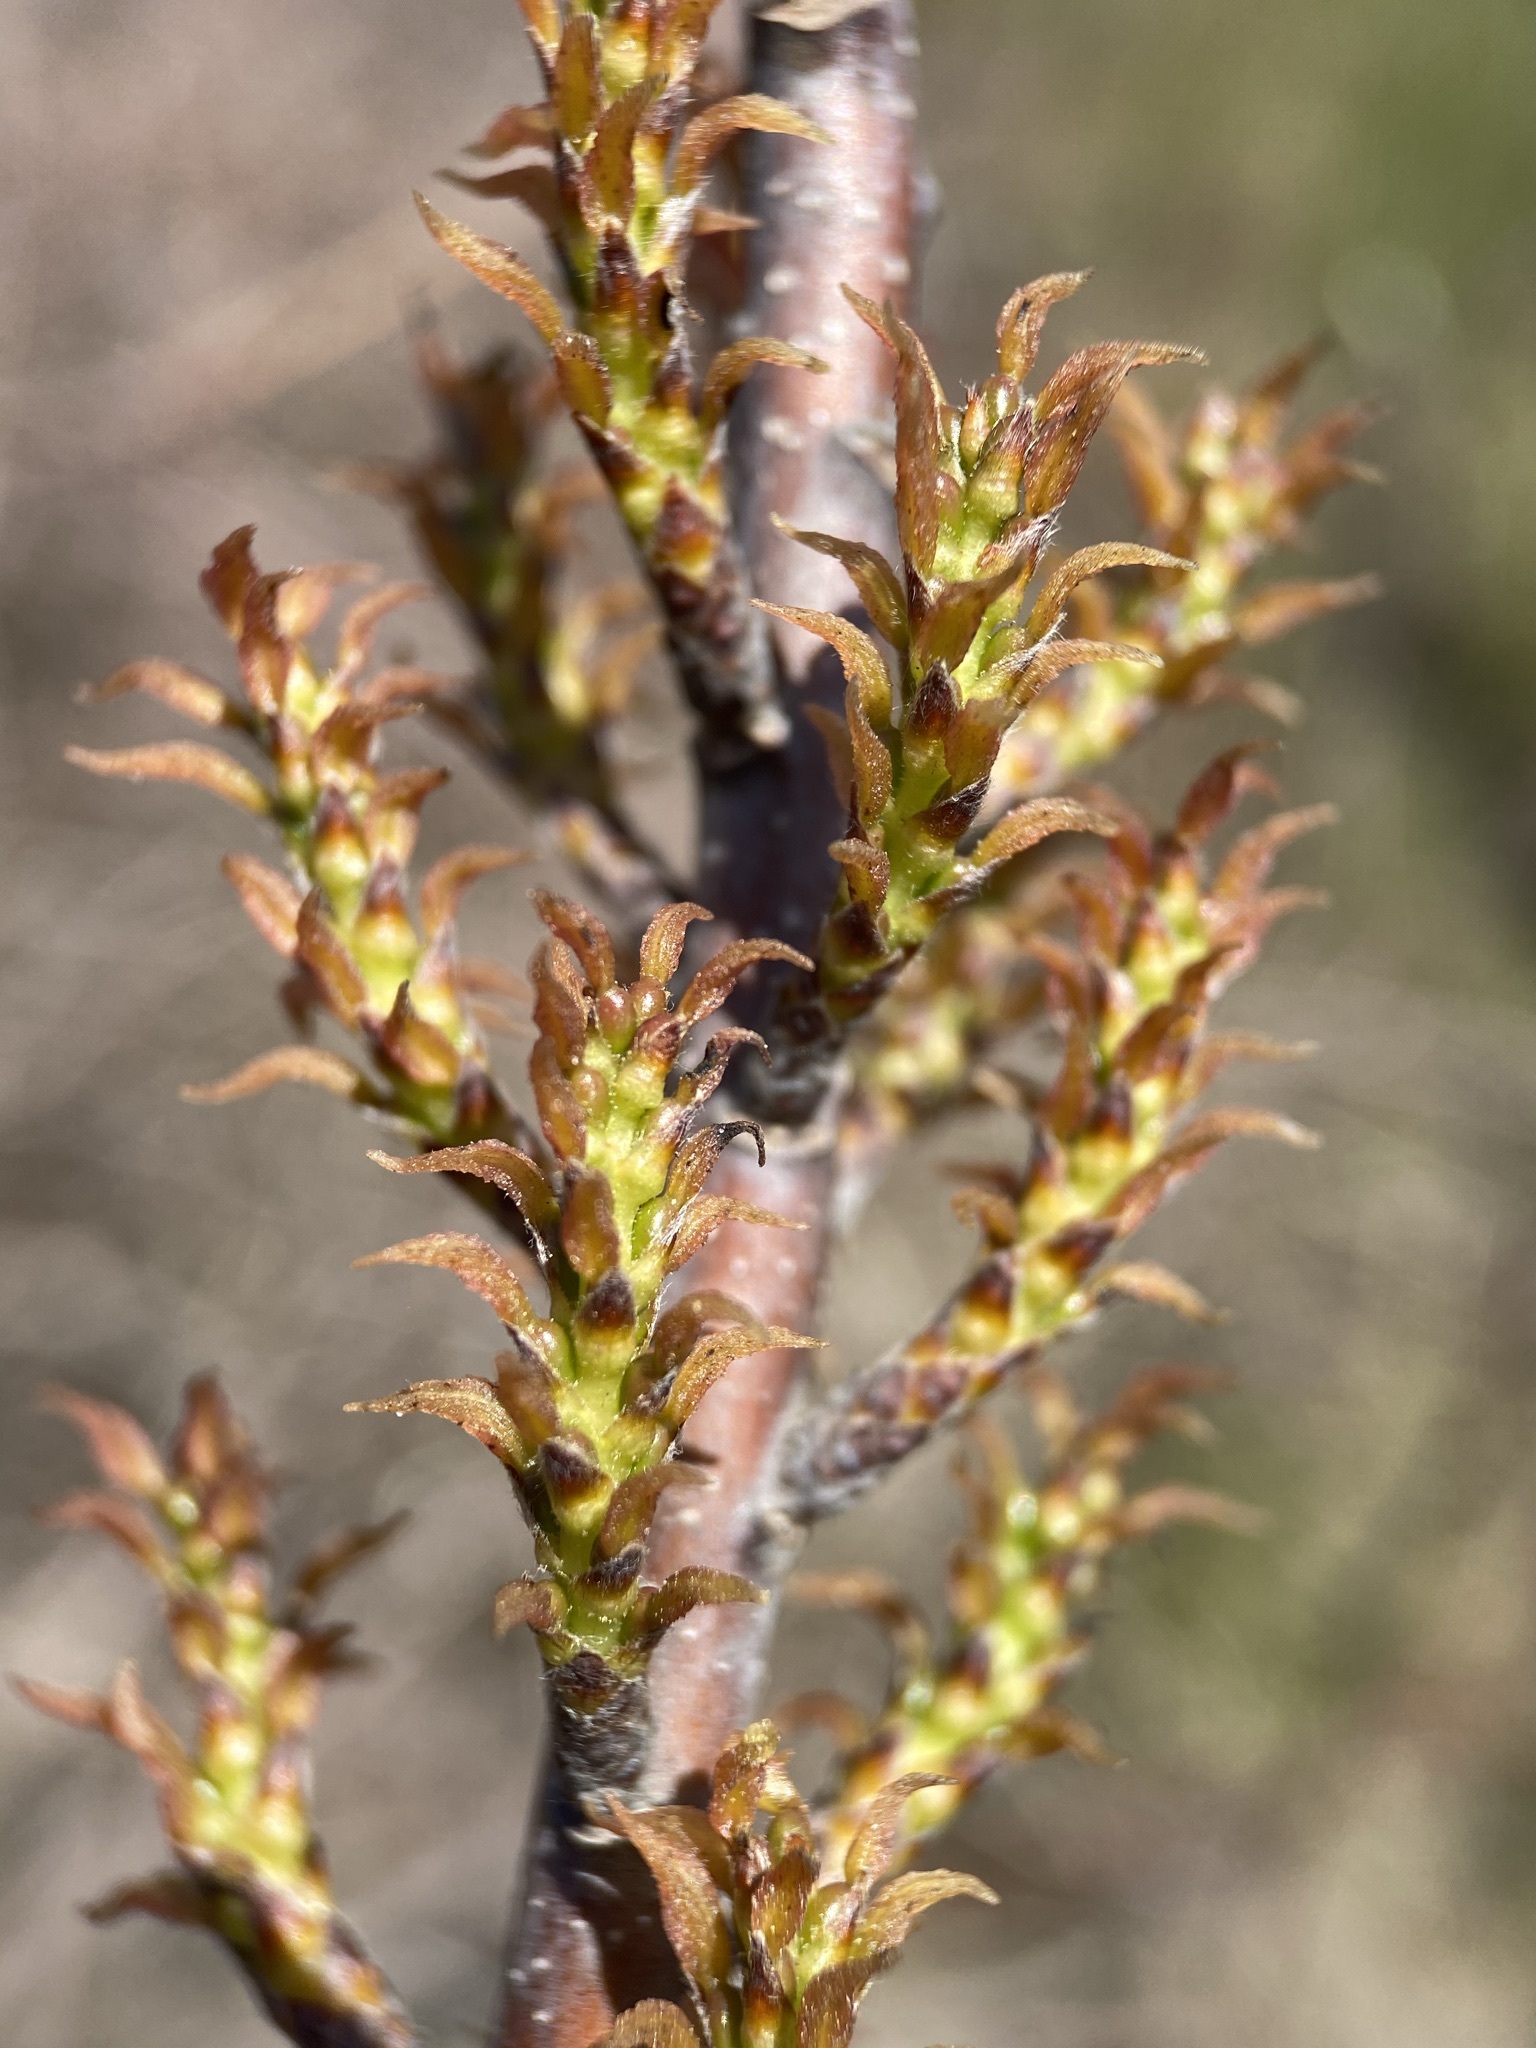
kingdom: Plantae
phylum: Tracheophyta
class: Magnoliopsida
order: Sapindales
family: Simaroubaceae
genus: Leitneria
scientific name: Leitneria pilosa
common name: Western corkwood
